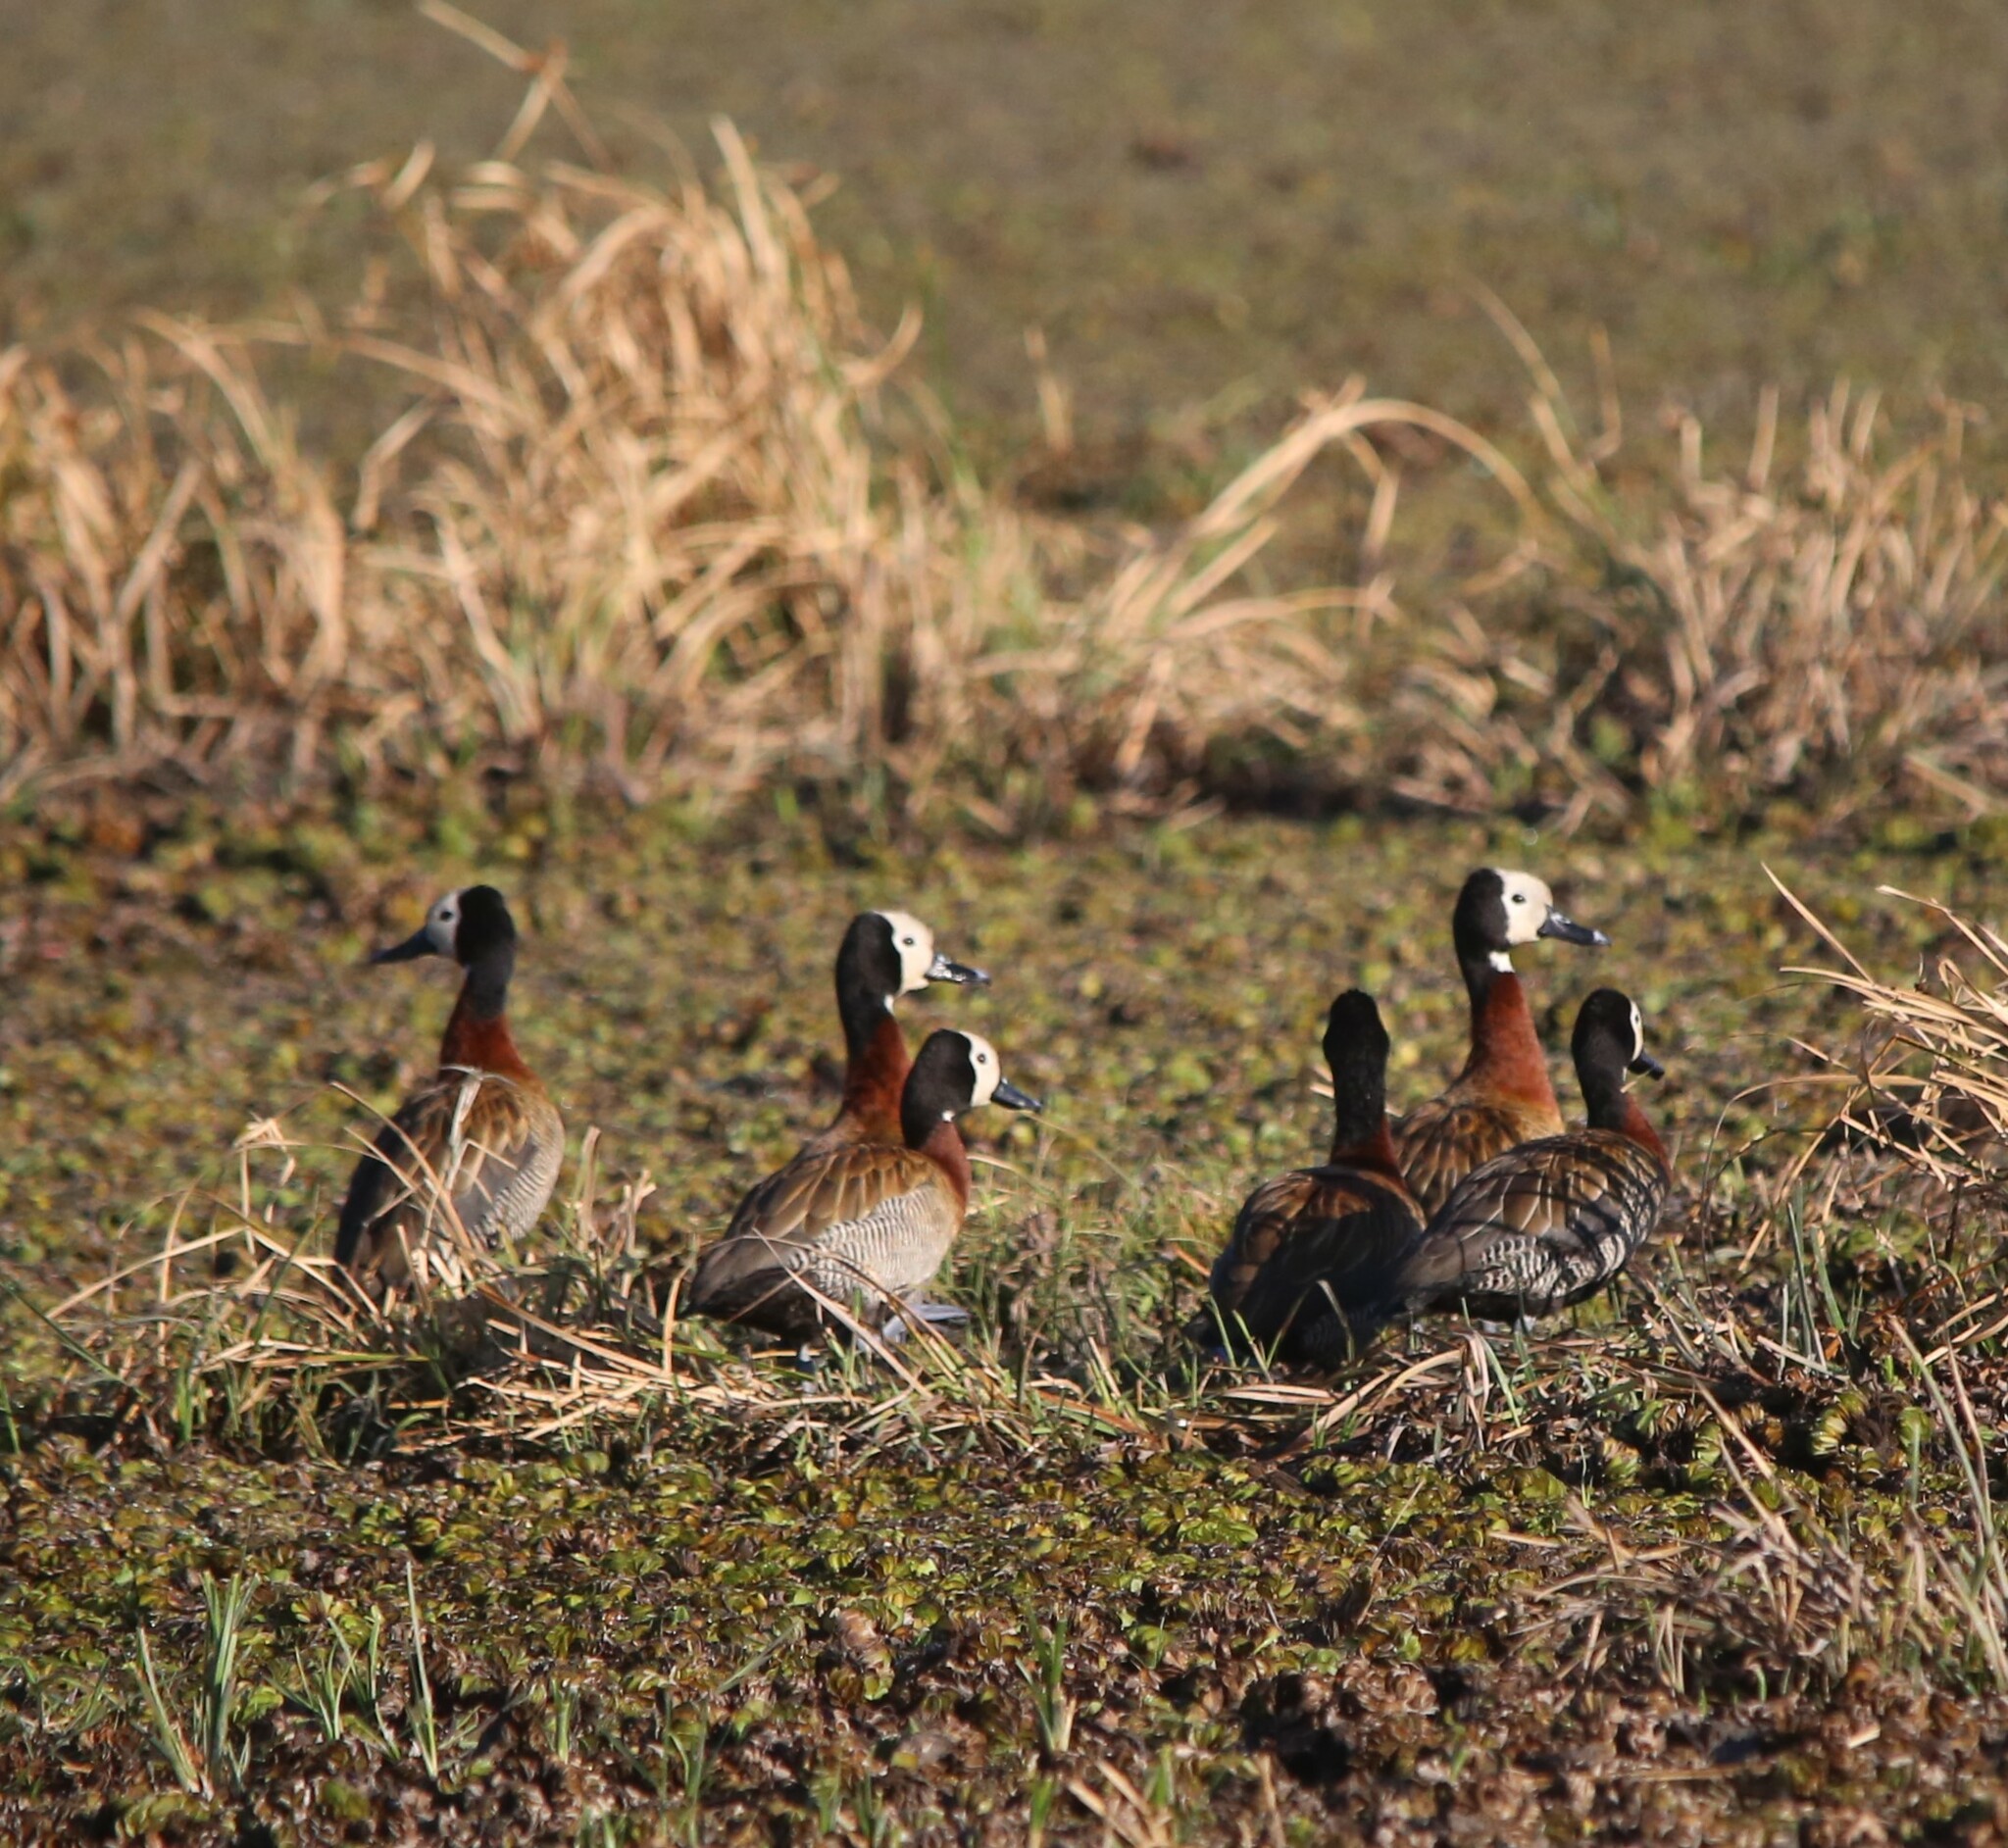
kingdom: Animalia
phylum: Chordata
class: Aves
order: Anseriformes
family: Anatidae
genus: Dendrocygna
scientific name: Dendrocygna viduata
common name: White-faced whistling duck
